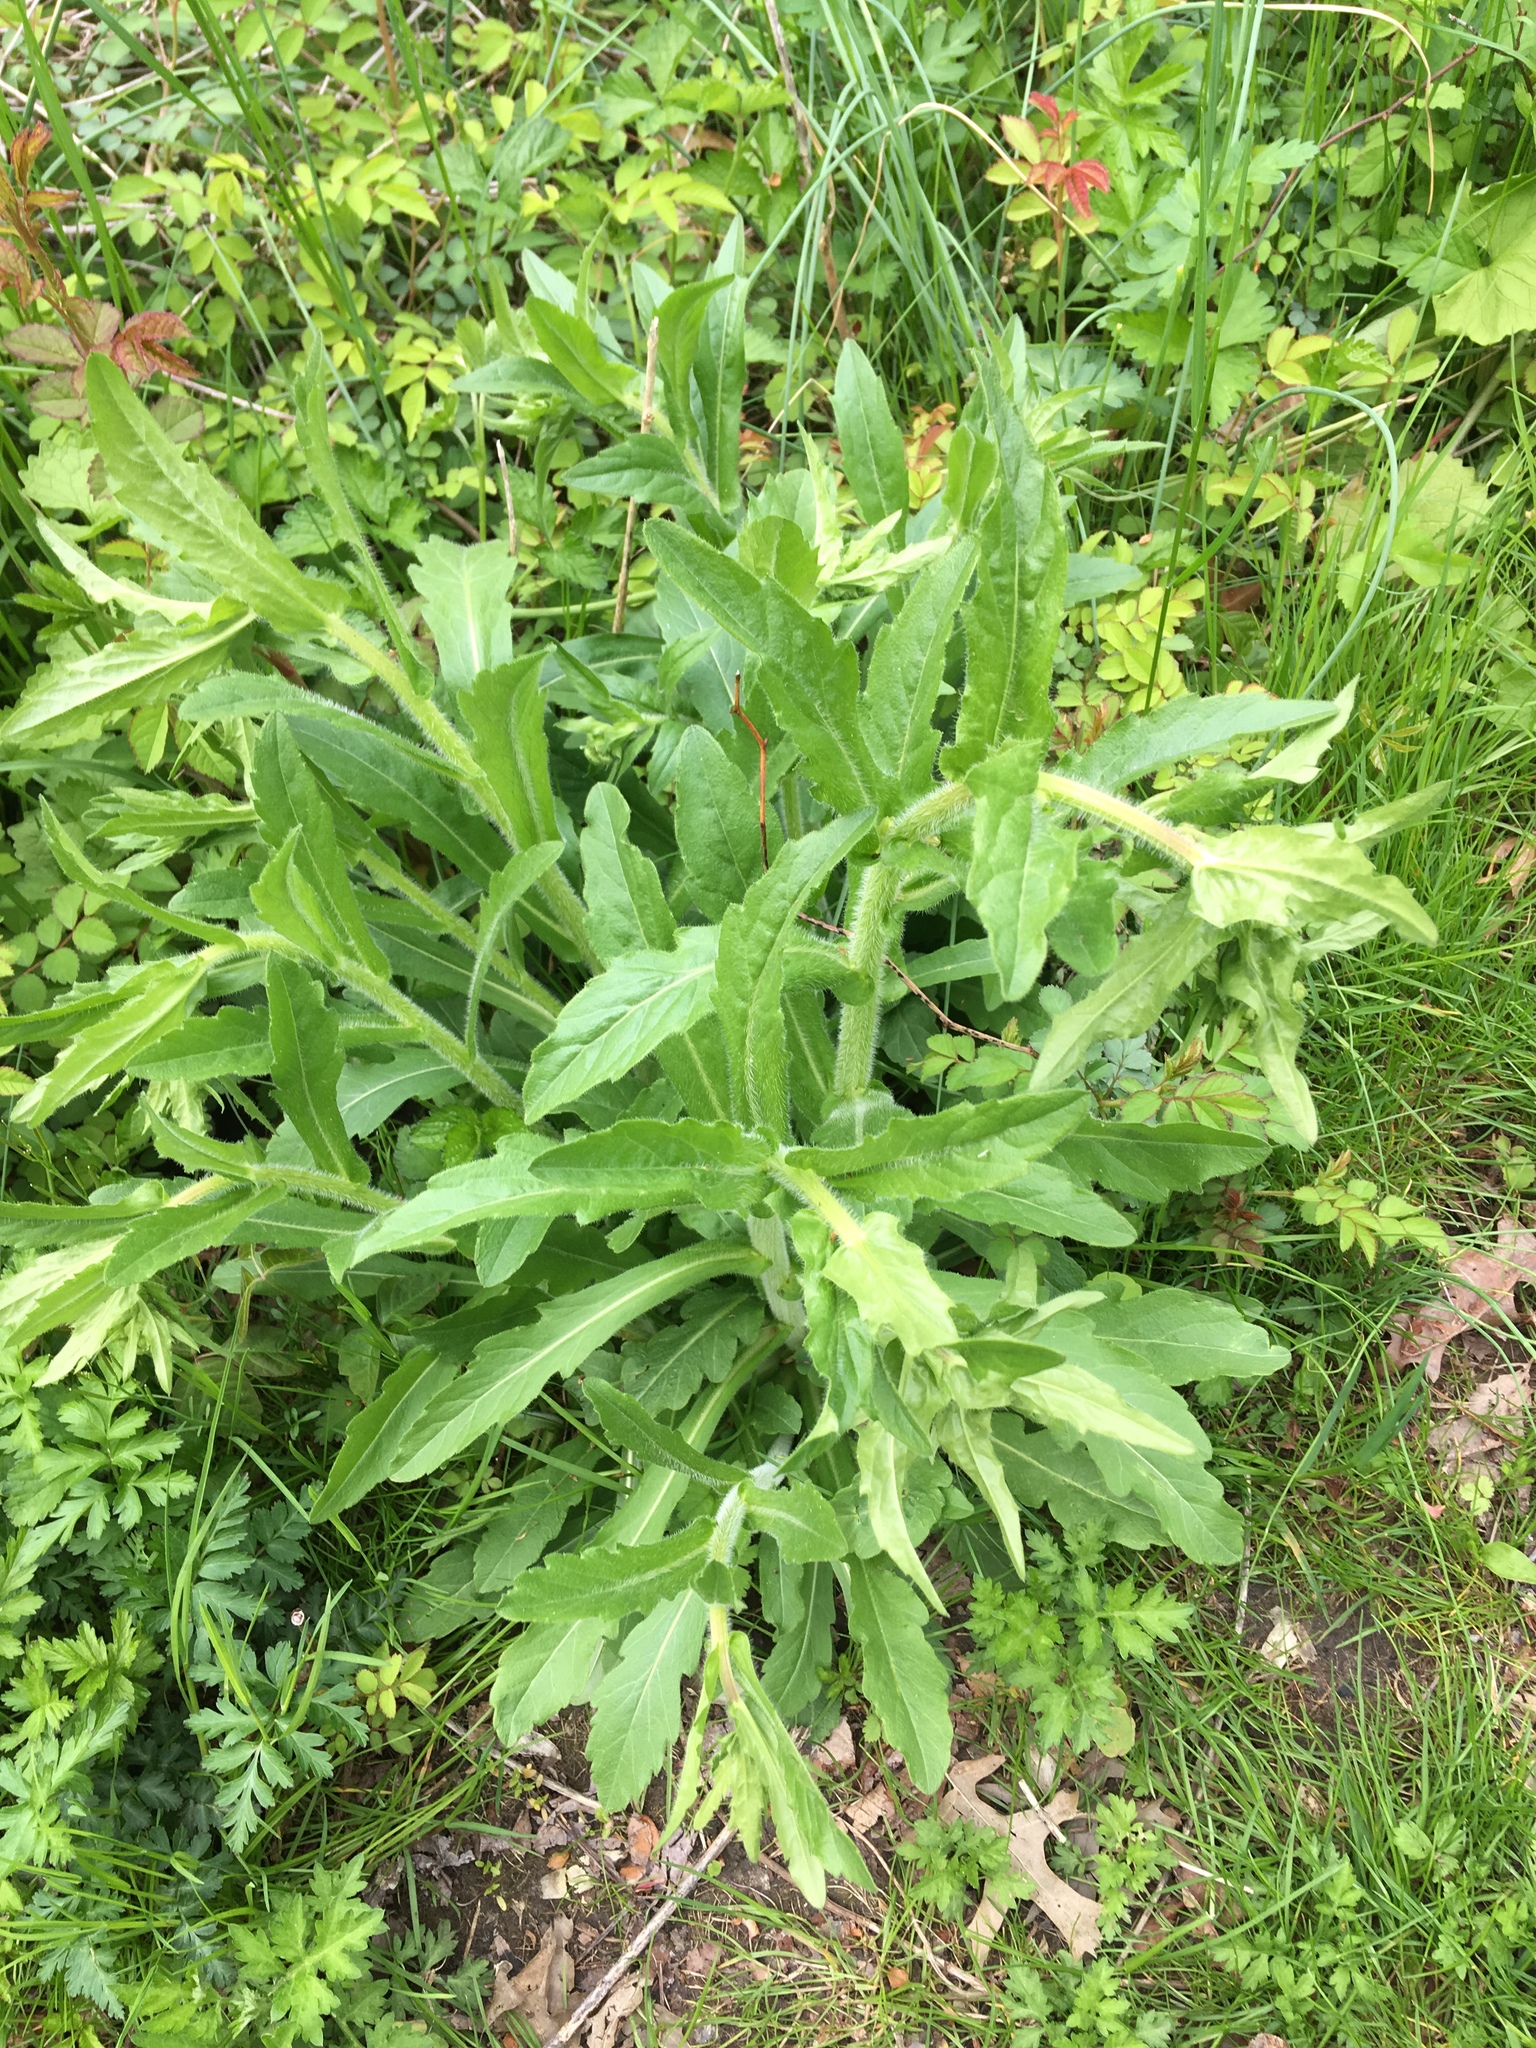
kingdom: Plantae
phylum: Tracheophyta
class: Magnoliopsida
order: Asterales
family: Asteraceae
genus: Erigeron
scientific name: Erigeron philadelphicus
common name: Robin's-plantain
